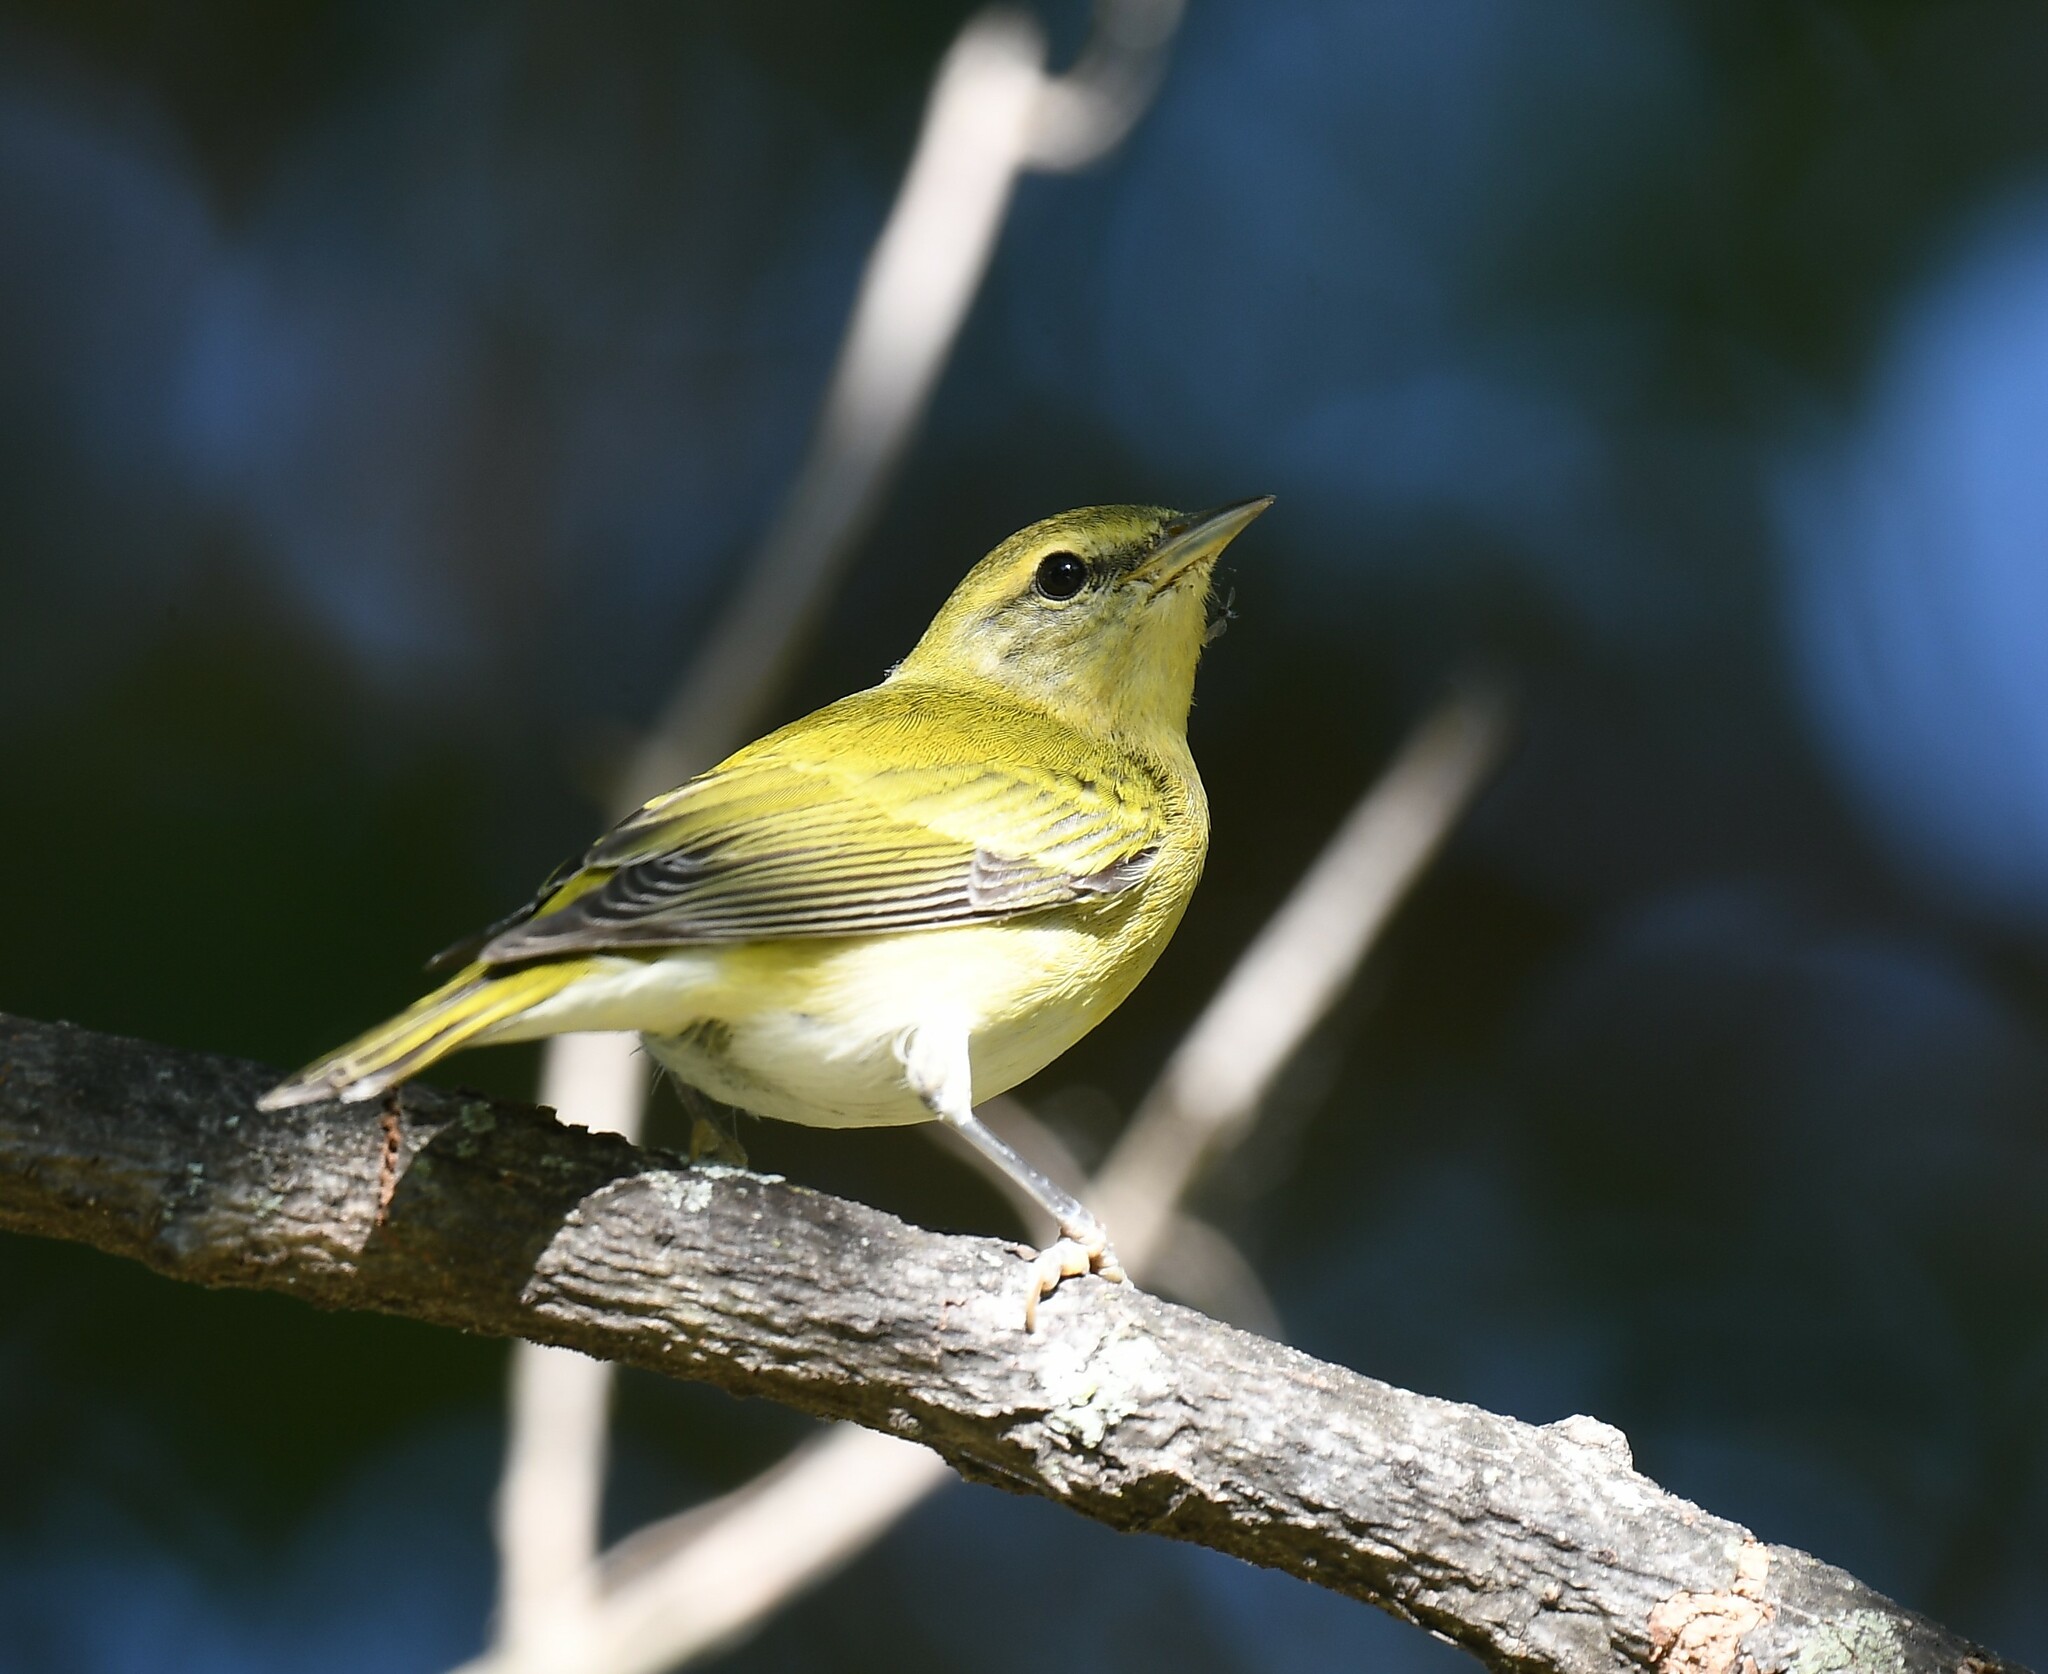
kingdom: Animalia
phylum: Chordata
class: Aves
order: Passeriformes
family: Parulidae
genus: Leiothlypis
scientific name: Leiothlypis peregrina
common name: Tennessee warbler
